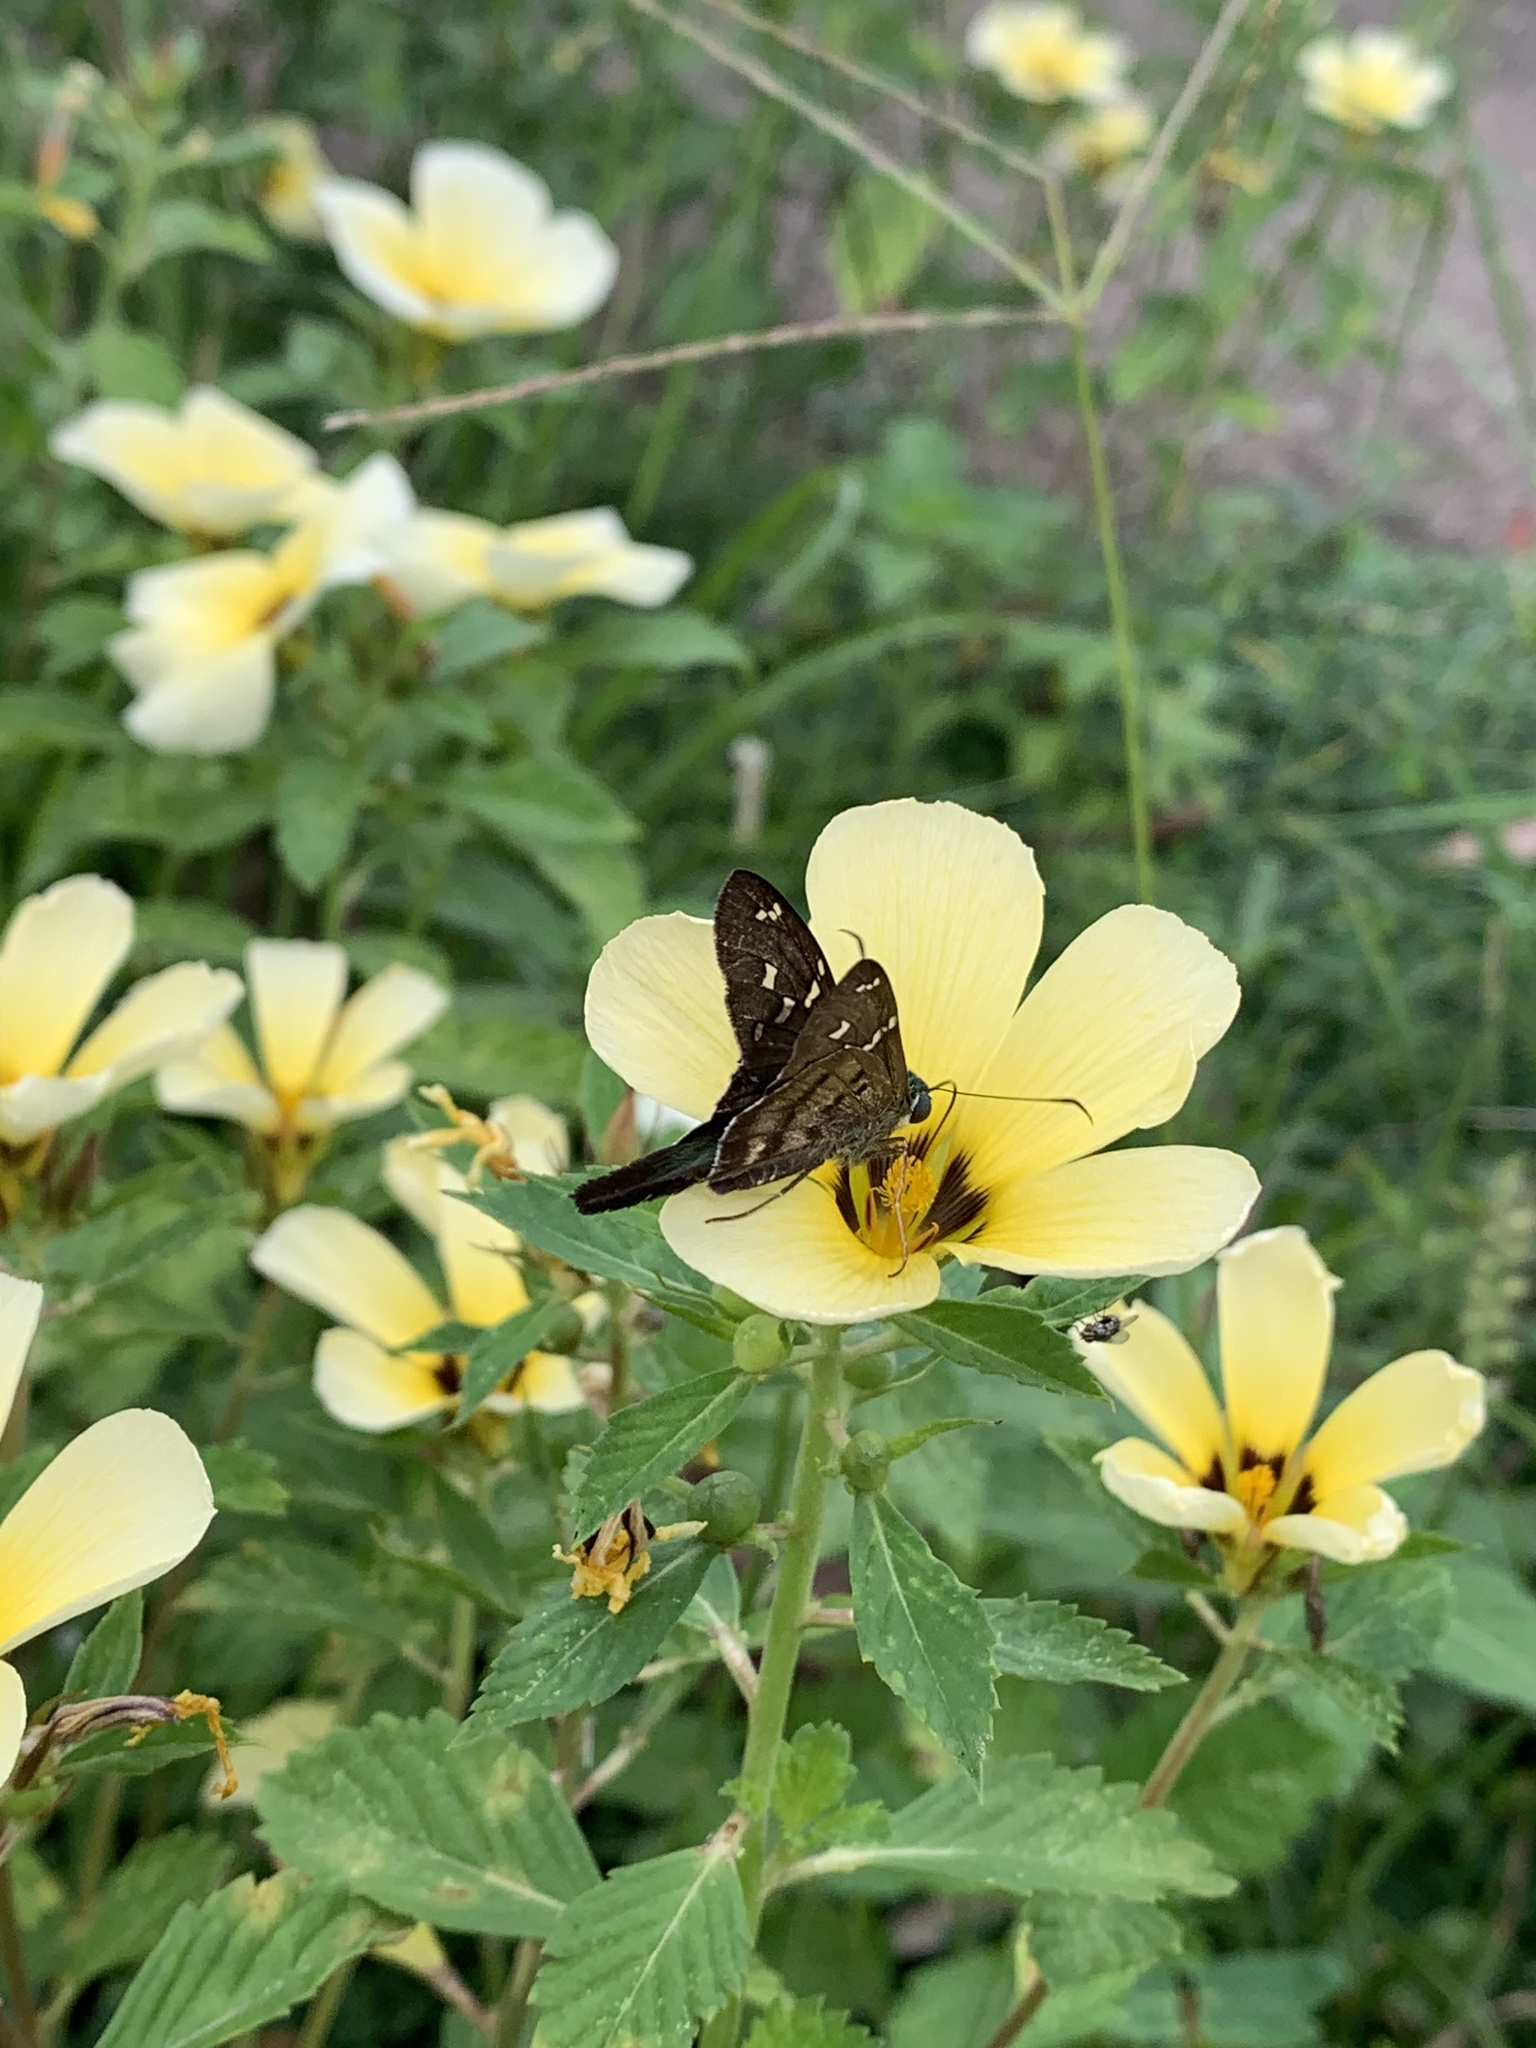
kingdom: Animalia
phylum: Arthropoda
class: Insecta
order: Lepidoptera
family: Hesperiidae
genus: Thorybes
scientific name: Thorybes
